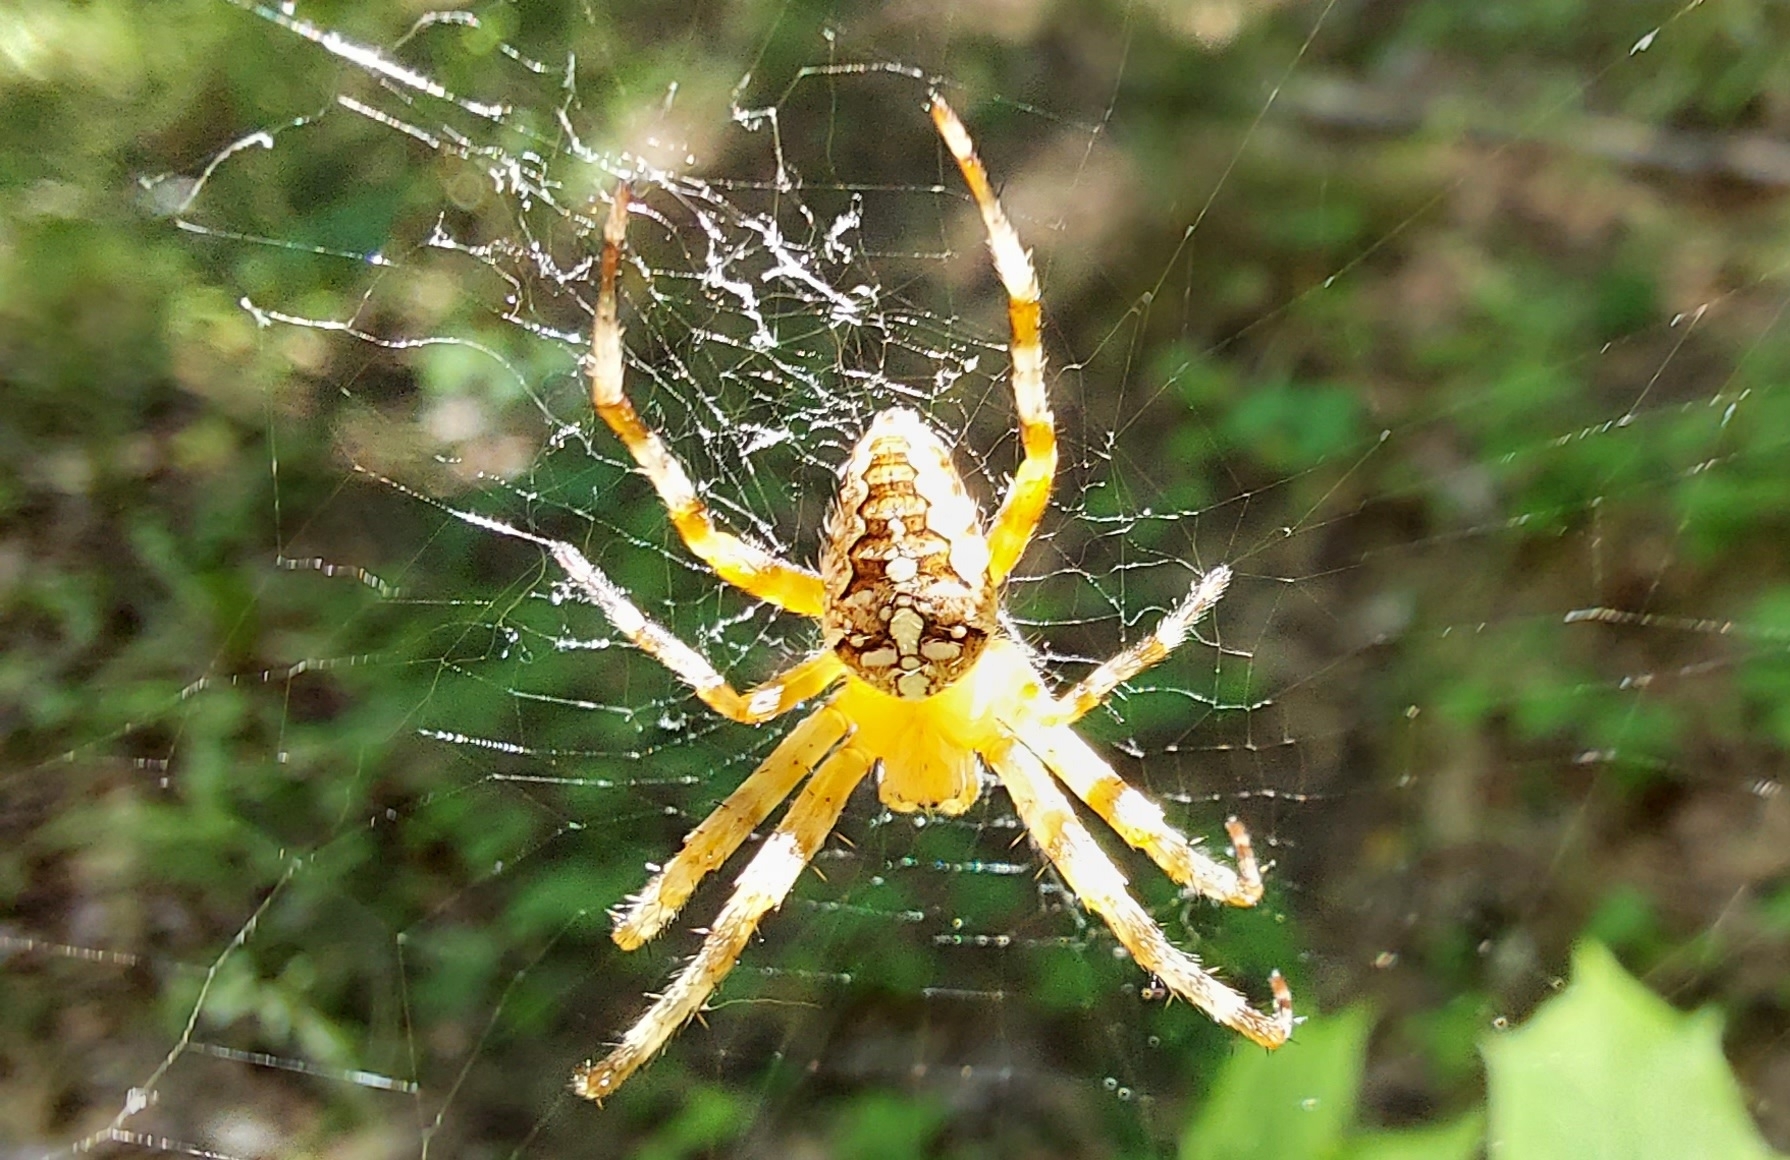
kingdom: Animalia
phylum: Arthropoda
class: Arachnida
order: Araneae
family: Araneidae
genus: Araneus
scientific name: Araneus diadematus
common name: Cross orbweaver
